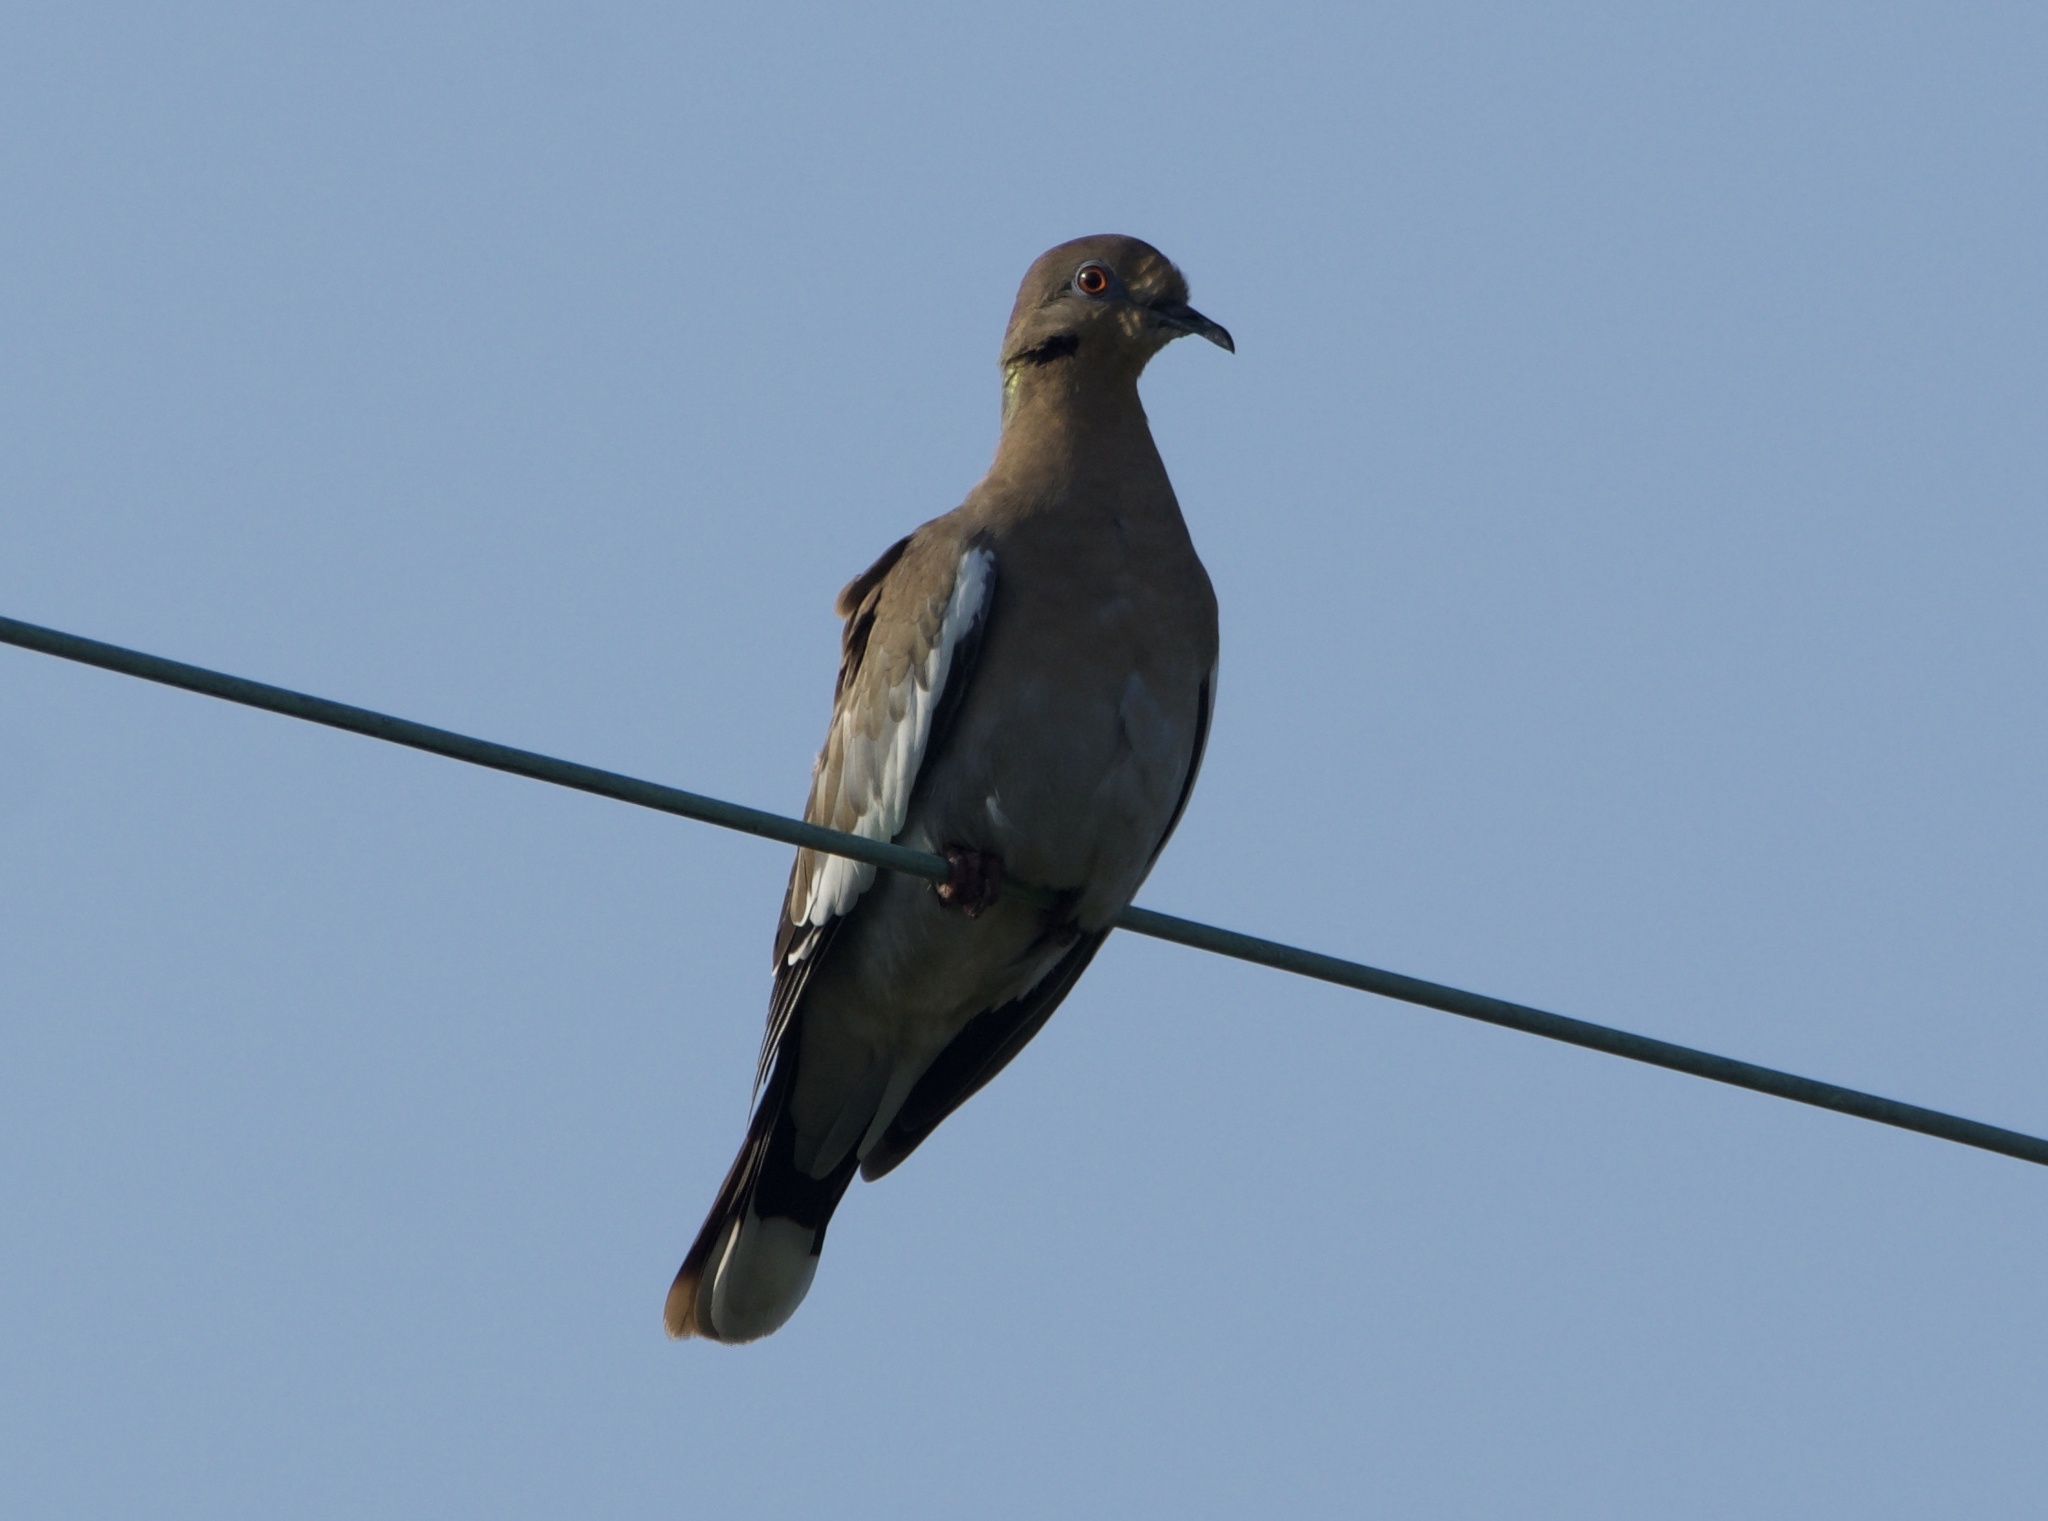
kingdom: Animalia
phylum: Chordata
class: Aves
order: Columbiformes
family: Columbidae
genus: Zenaida
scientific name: Zenaida asiatica
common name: White-winged dove
